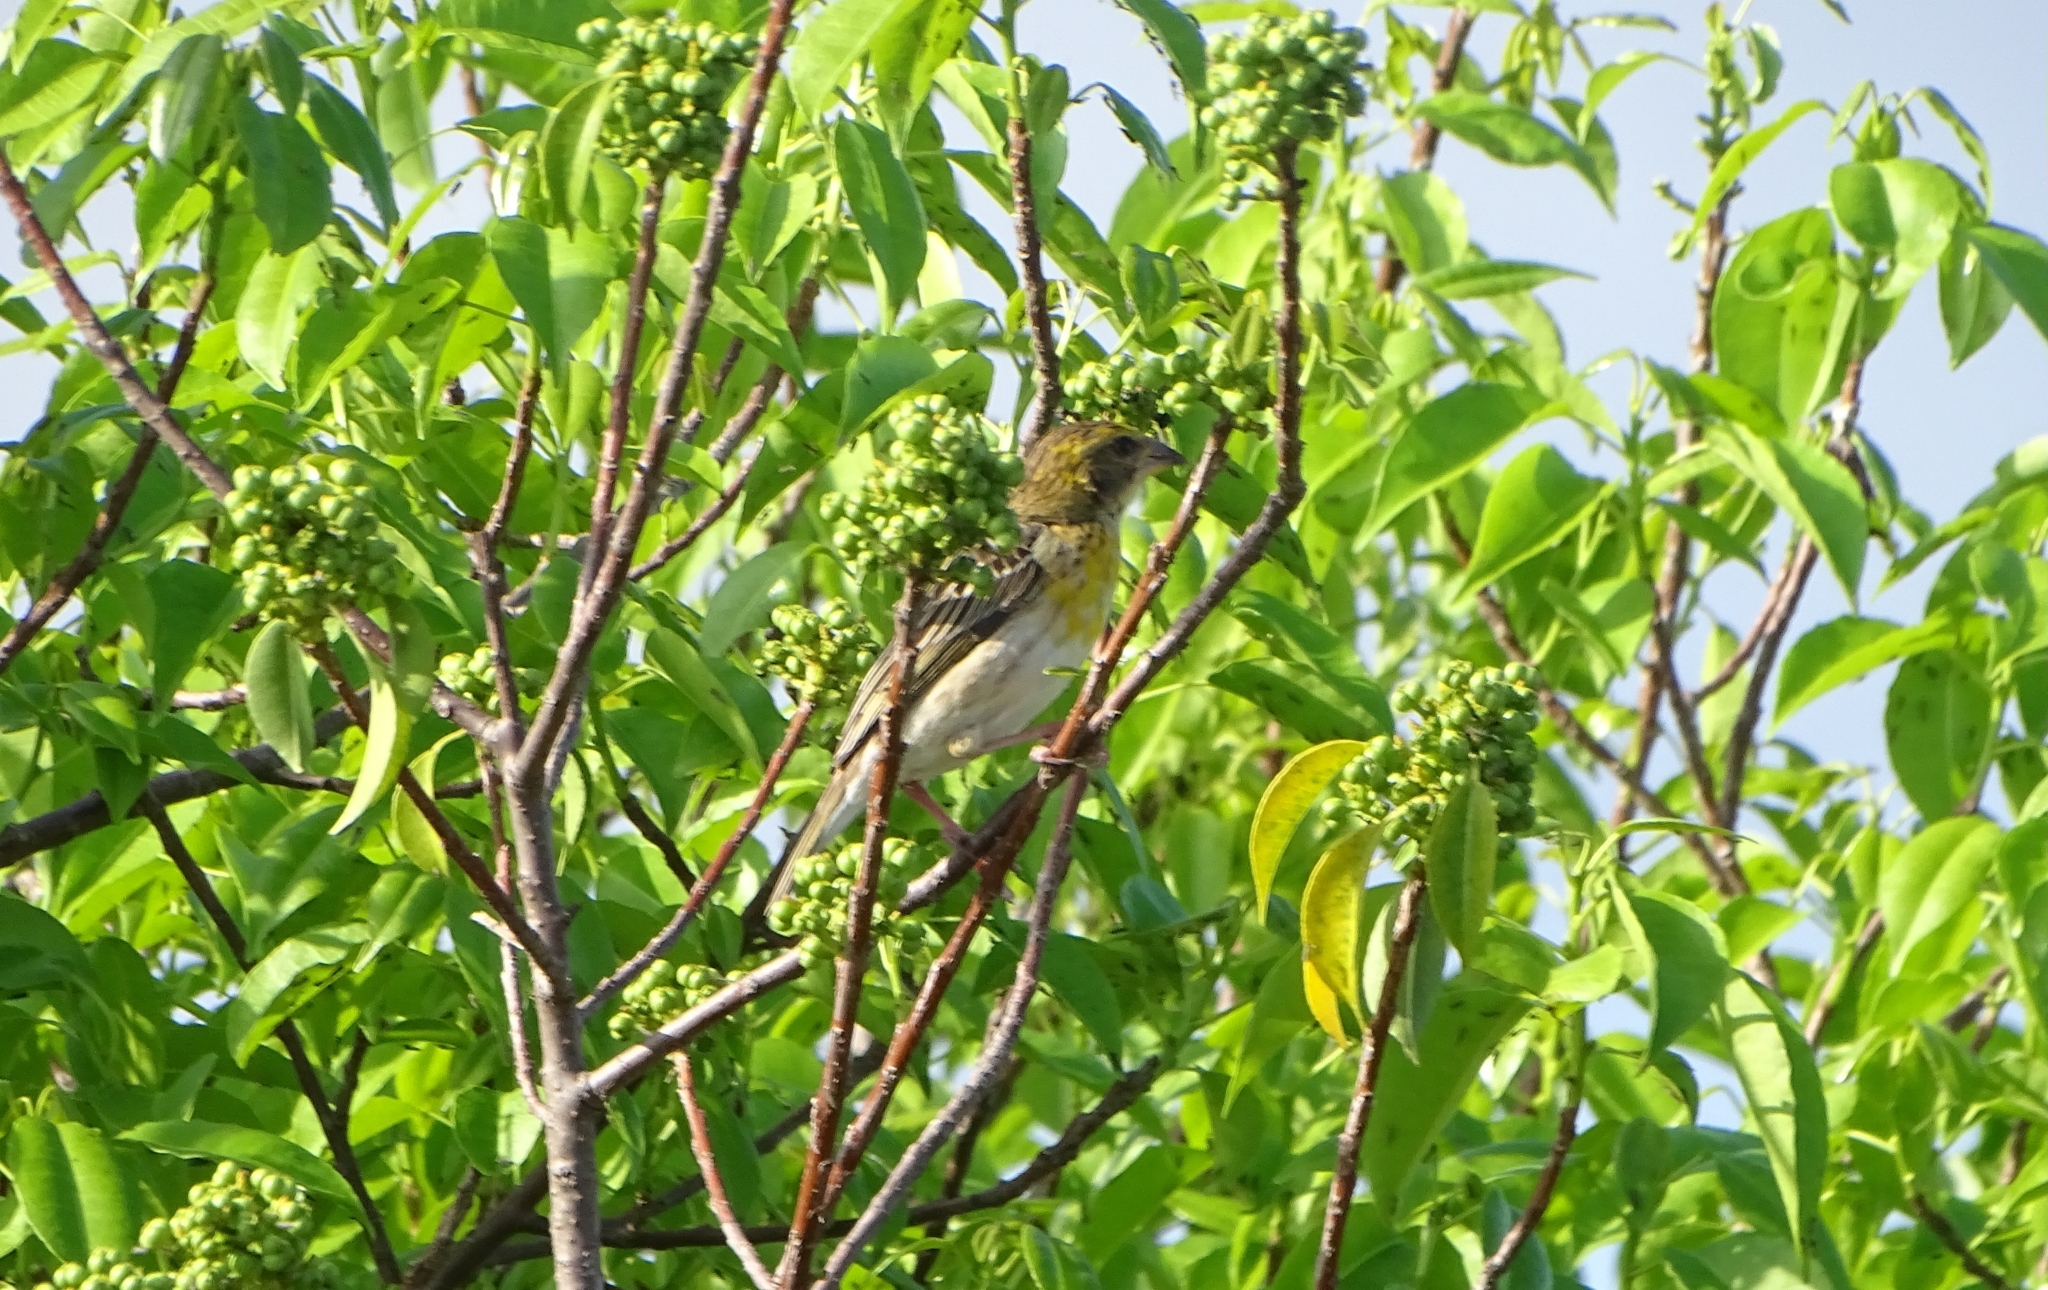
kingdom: Animalia
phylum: Chordata
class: Aves
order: Passeriformes
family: Ploceidae
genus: Ploceus
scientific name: Ploceus philippinus
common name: Baya weaver
